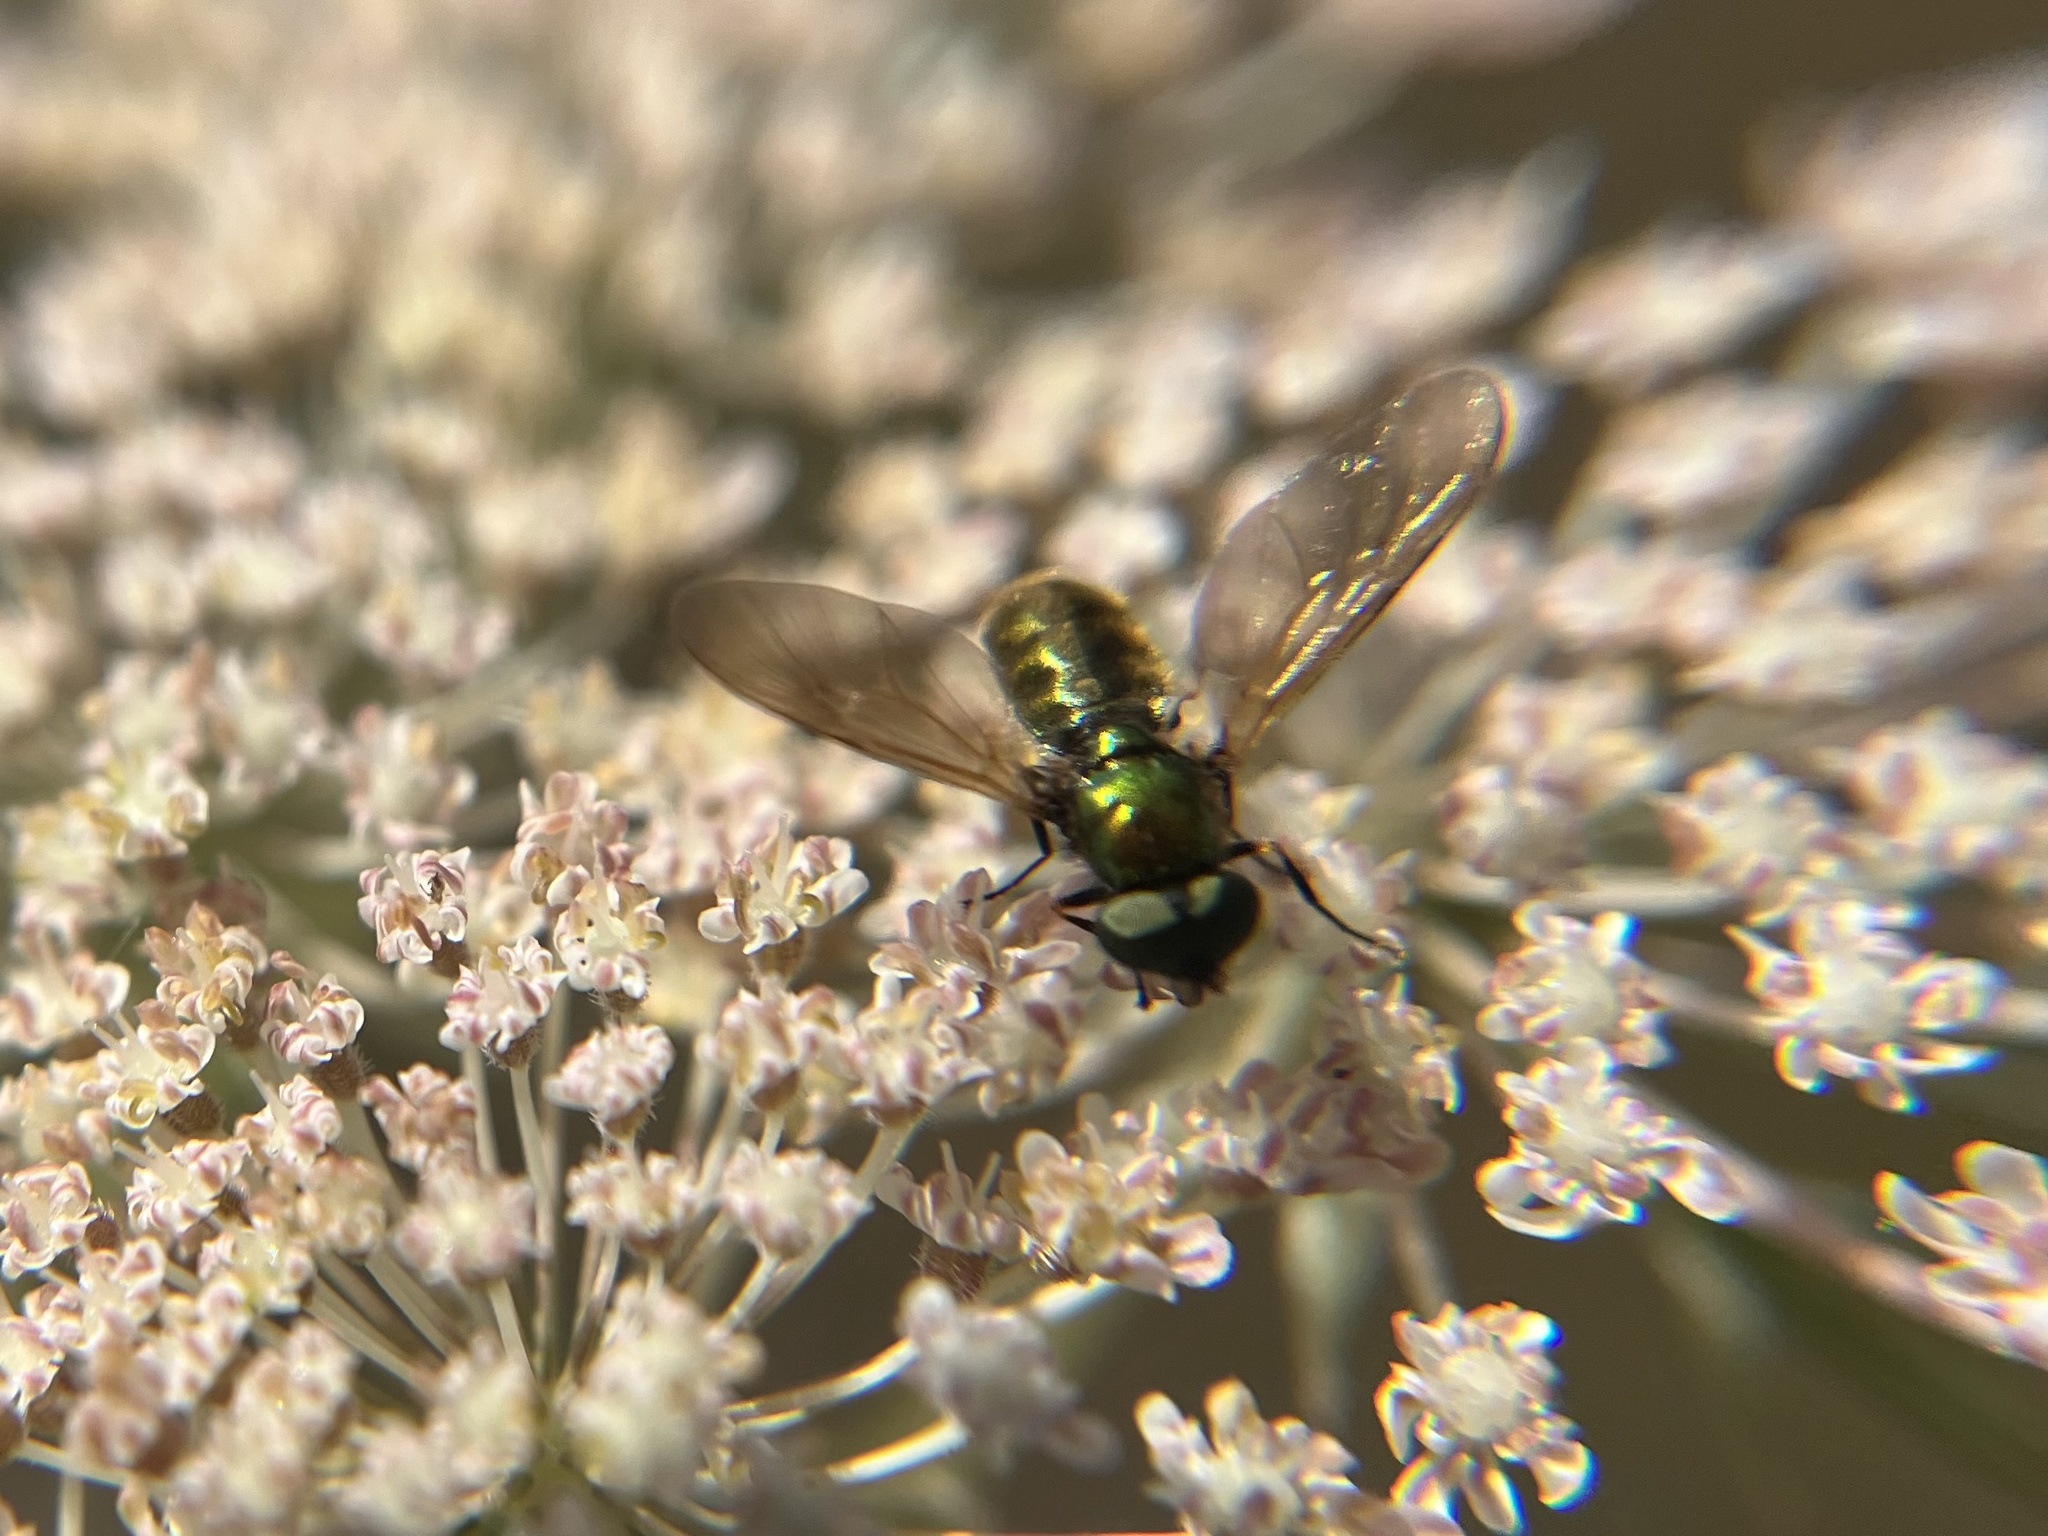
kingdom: Animalia
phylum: Arthropoda
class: Insecta
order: Diptera
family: Stratiomyidae
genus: Chloromyia
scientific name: Chloromyia formosa
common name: Soldier fly
